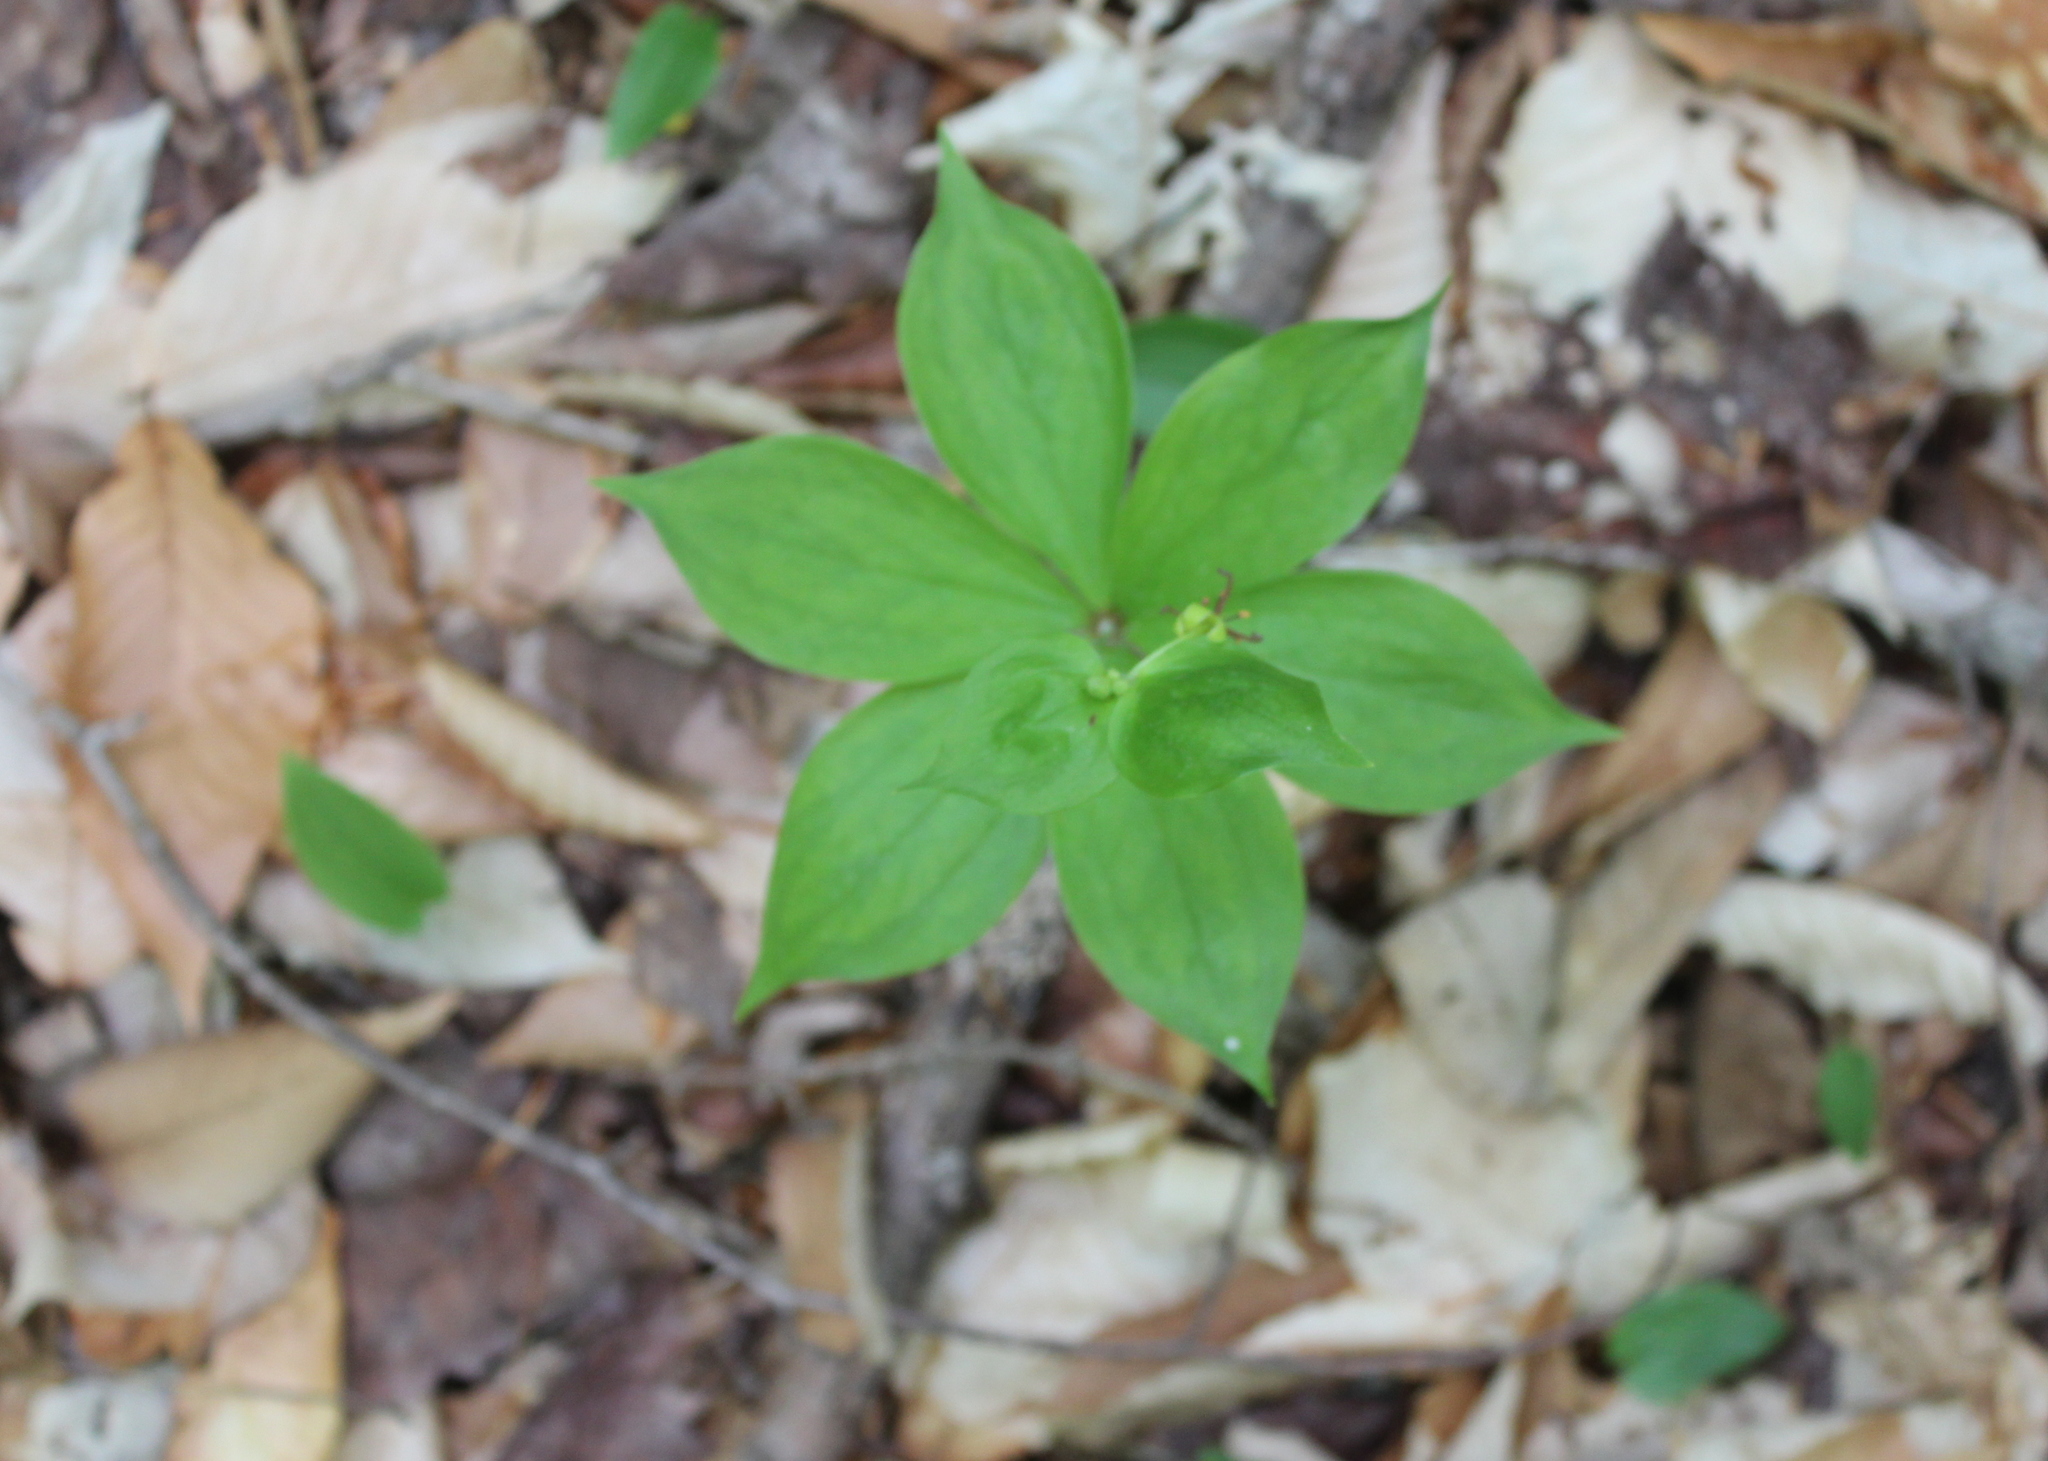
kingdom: Plantae
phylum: Tracheophyta
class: Liliopsida
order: Liliales
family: Liliaceae
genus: Medeola
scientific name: Medeola virginiana
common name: Indian cucumber-root
